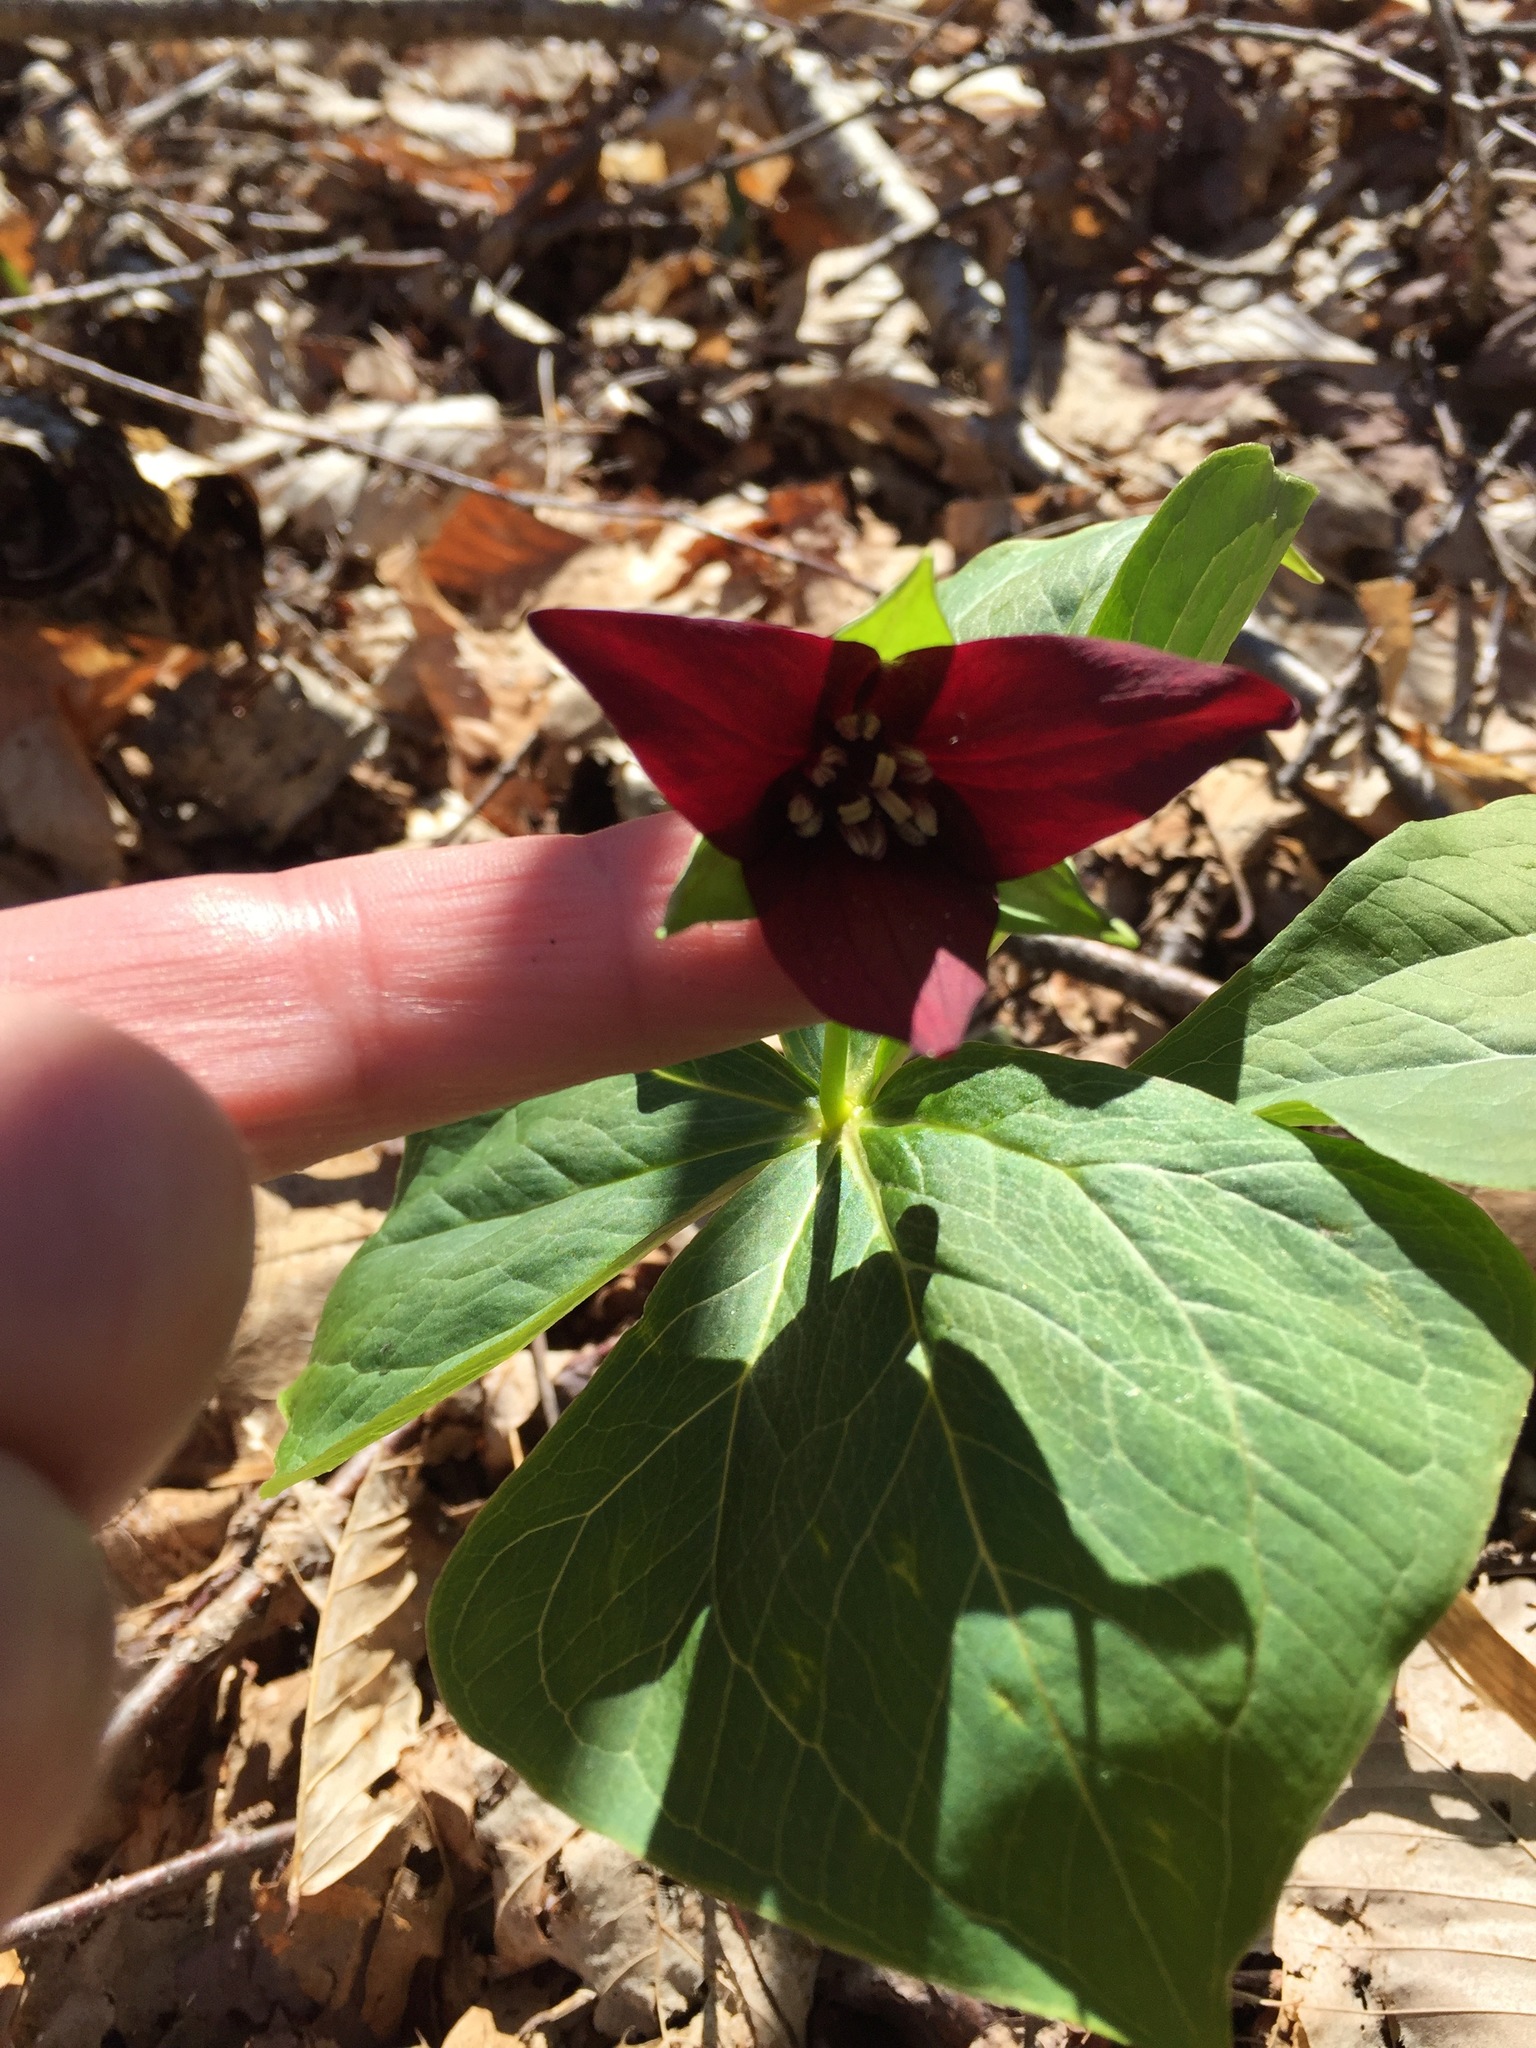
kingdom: Plantae
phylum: Tracheophyta
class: Liliopsida
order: Liliales
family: Melanthiaceae
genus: Trillium
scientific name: Trillium erectum
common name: Purple trillium
